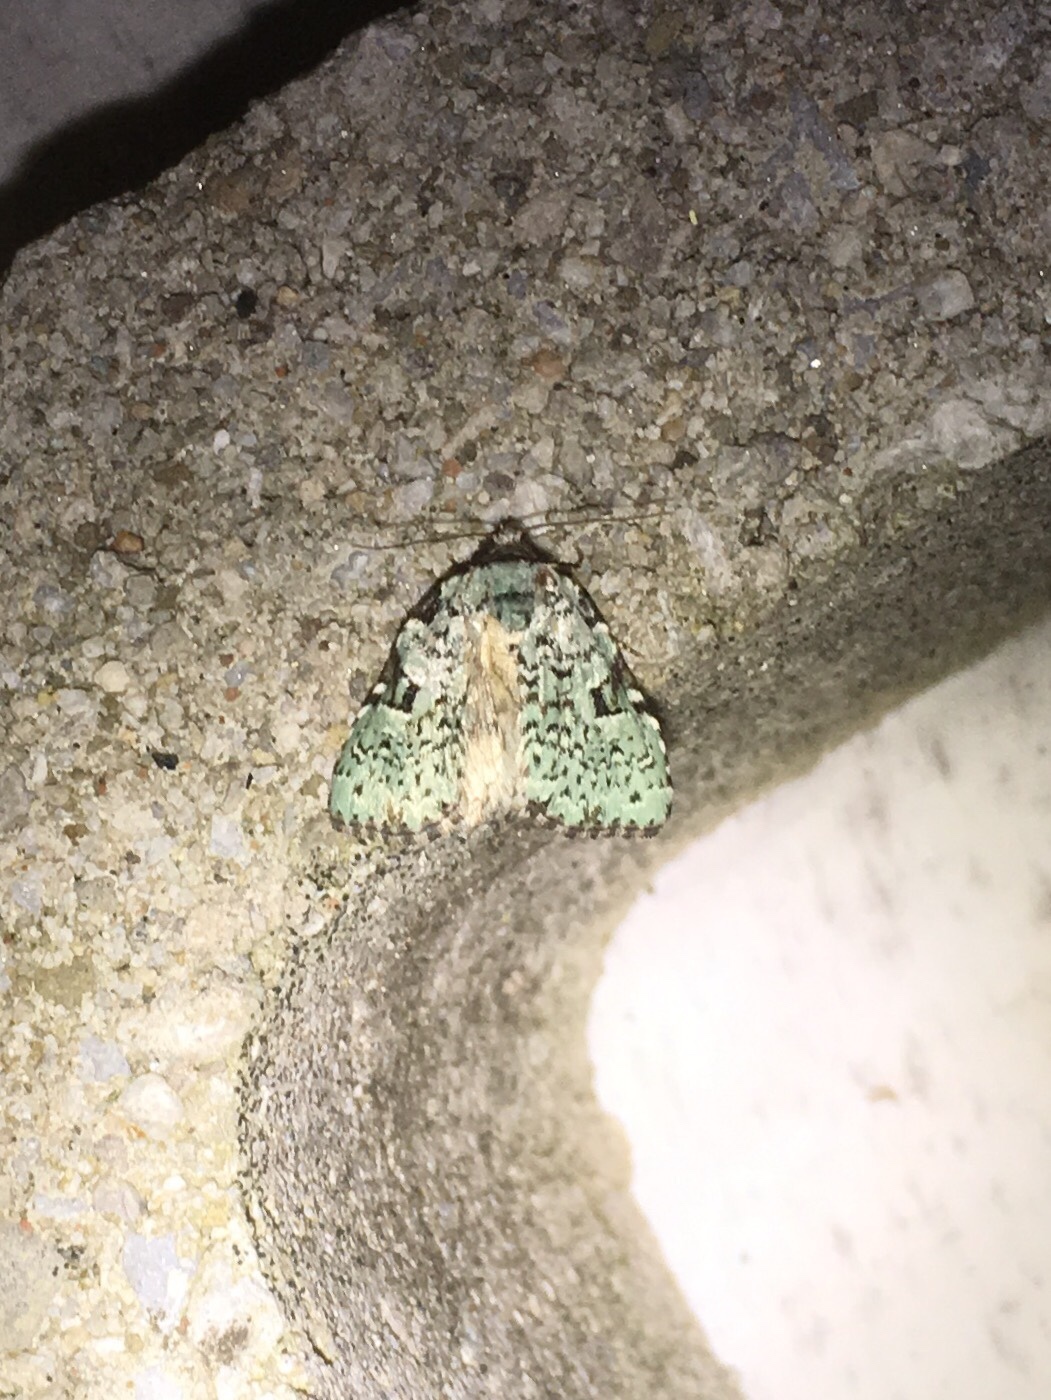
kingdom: Animalia
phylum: Arthropoda
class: Insecta
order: Lepidoptera
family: Noctuidae
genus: Leuconycta
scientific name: Leuconycta diphteroides
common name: Green leuconycta moth
